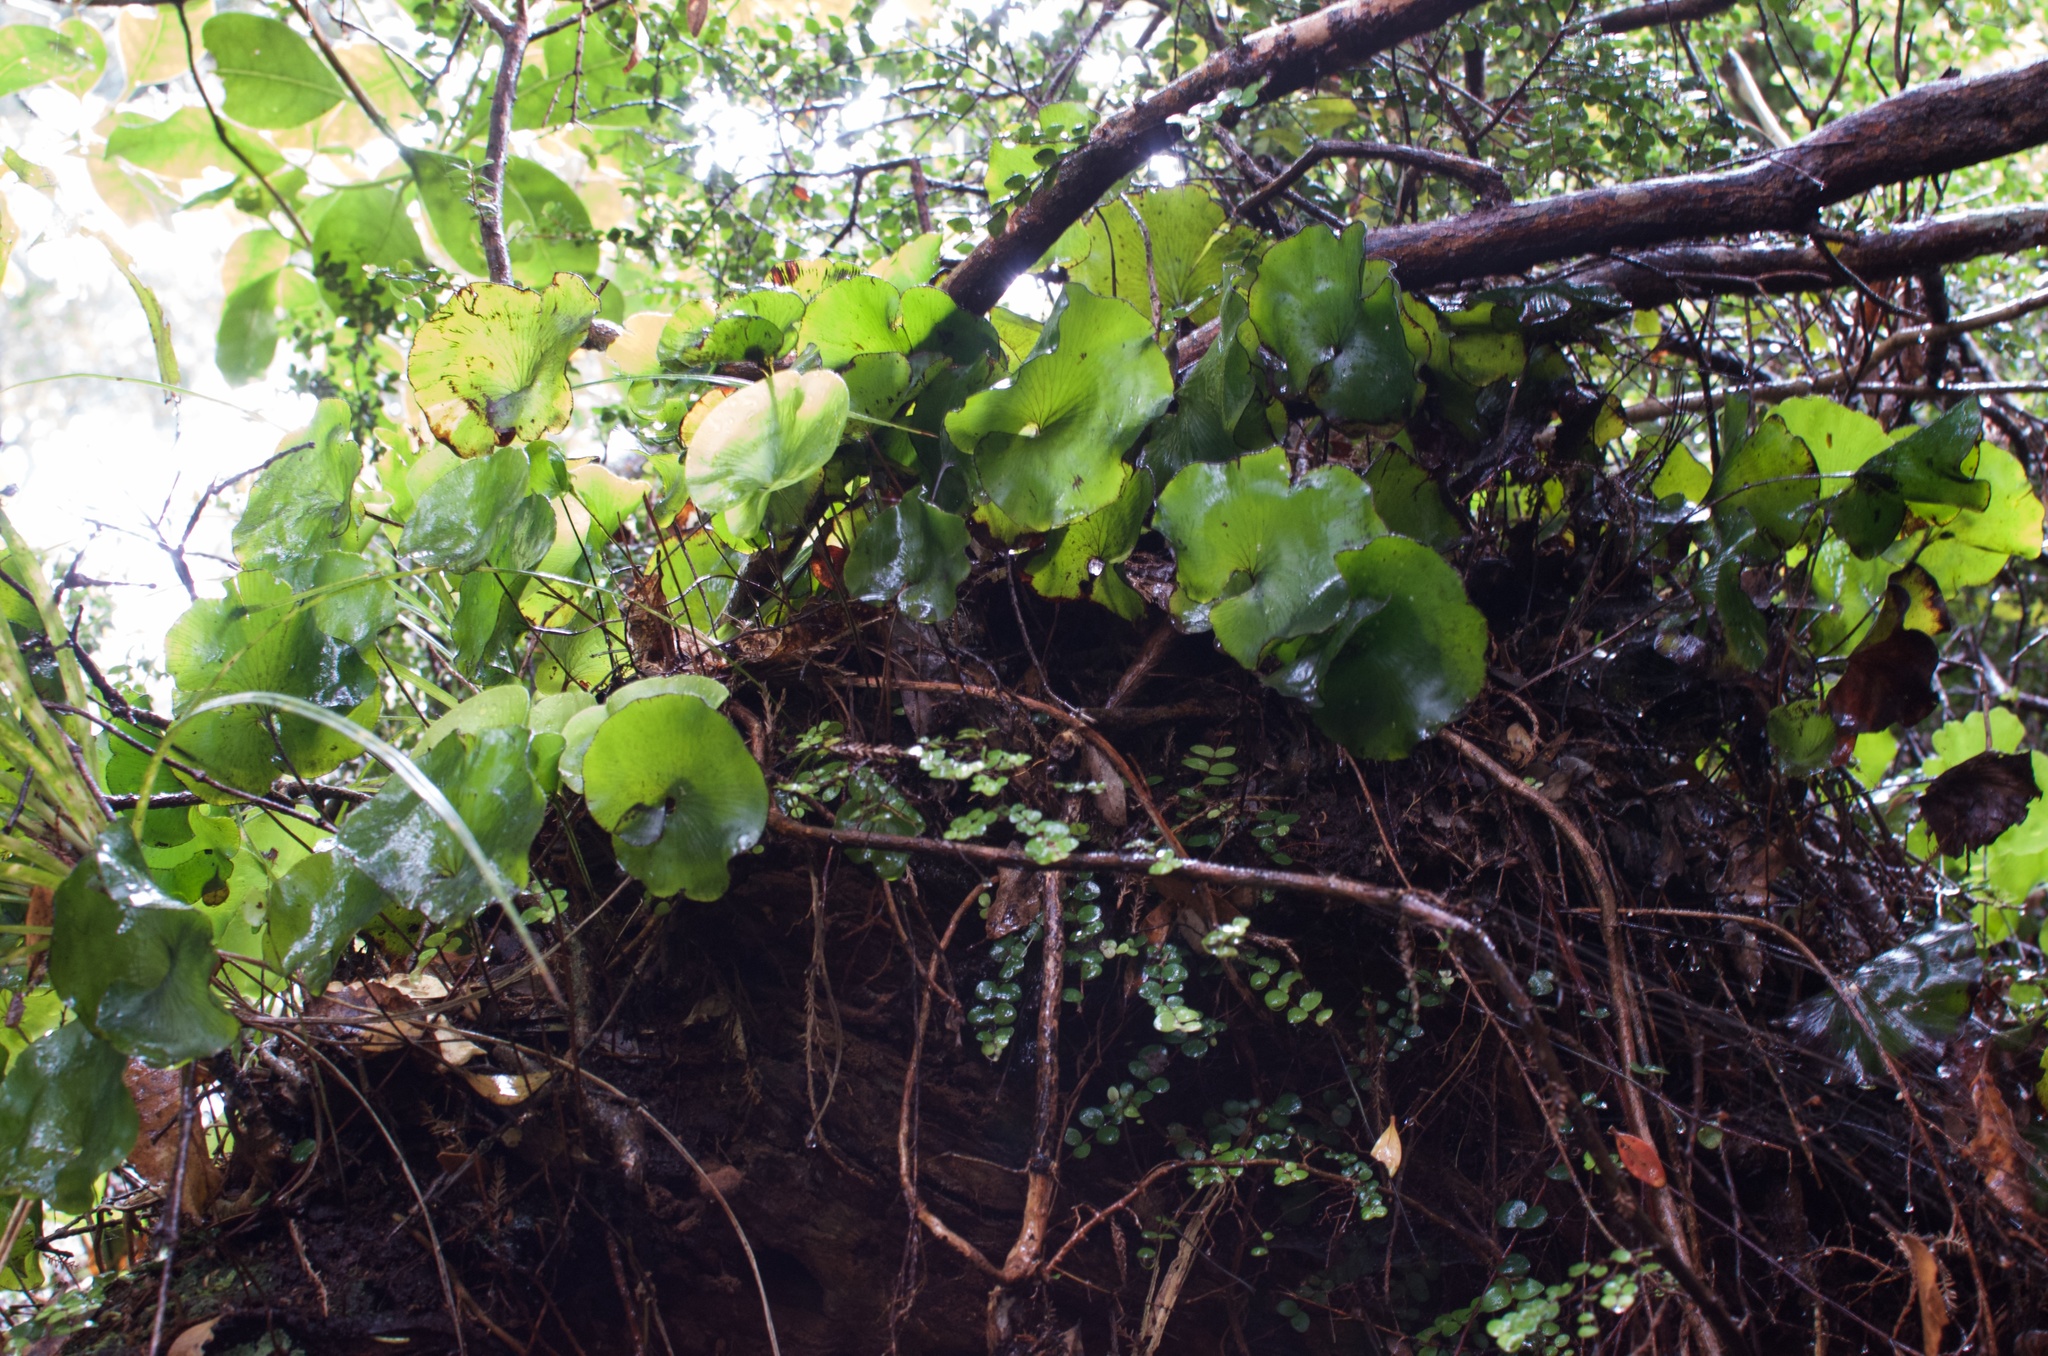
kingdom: Plantae
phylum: Tracheophyta
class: Polypodiopsida
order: Hymenophyllales
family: Hymenophyllaceae
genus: Hymenophyllum
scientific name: Hymenophyllum nephrophyllum
